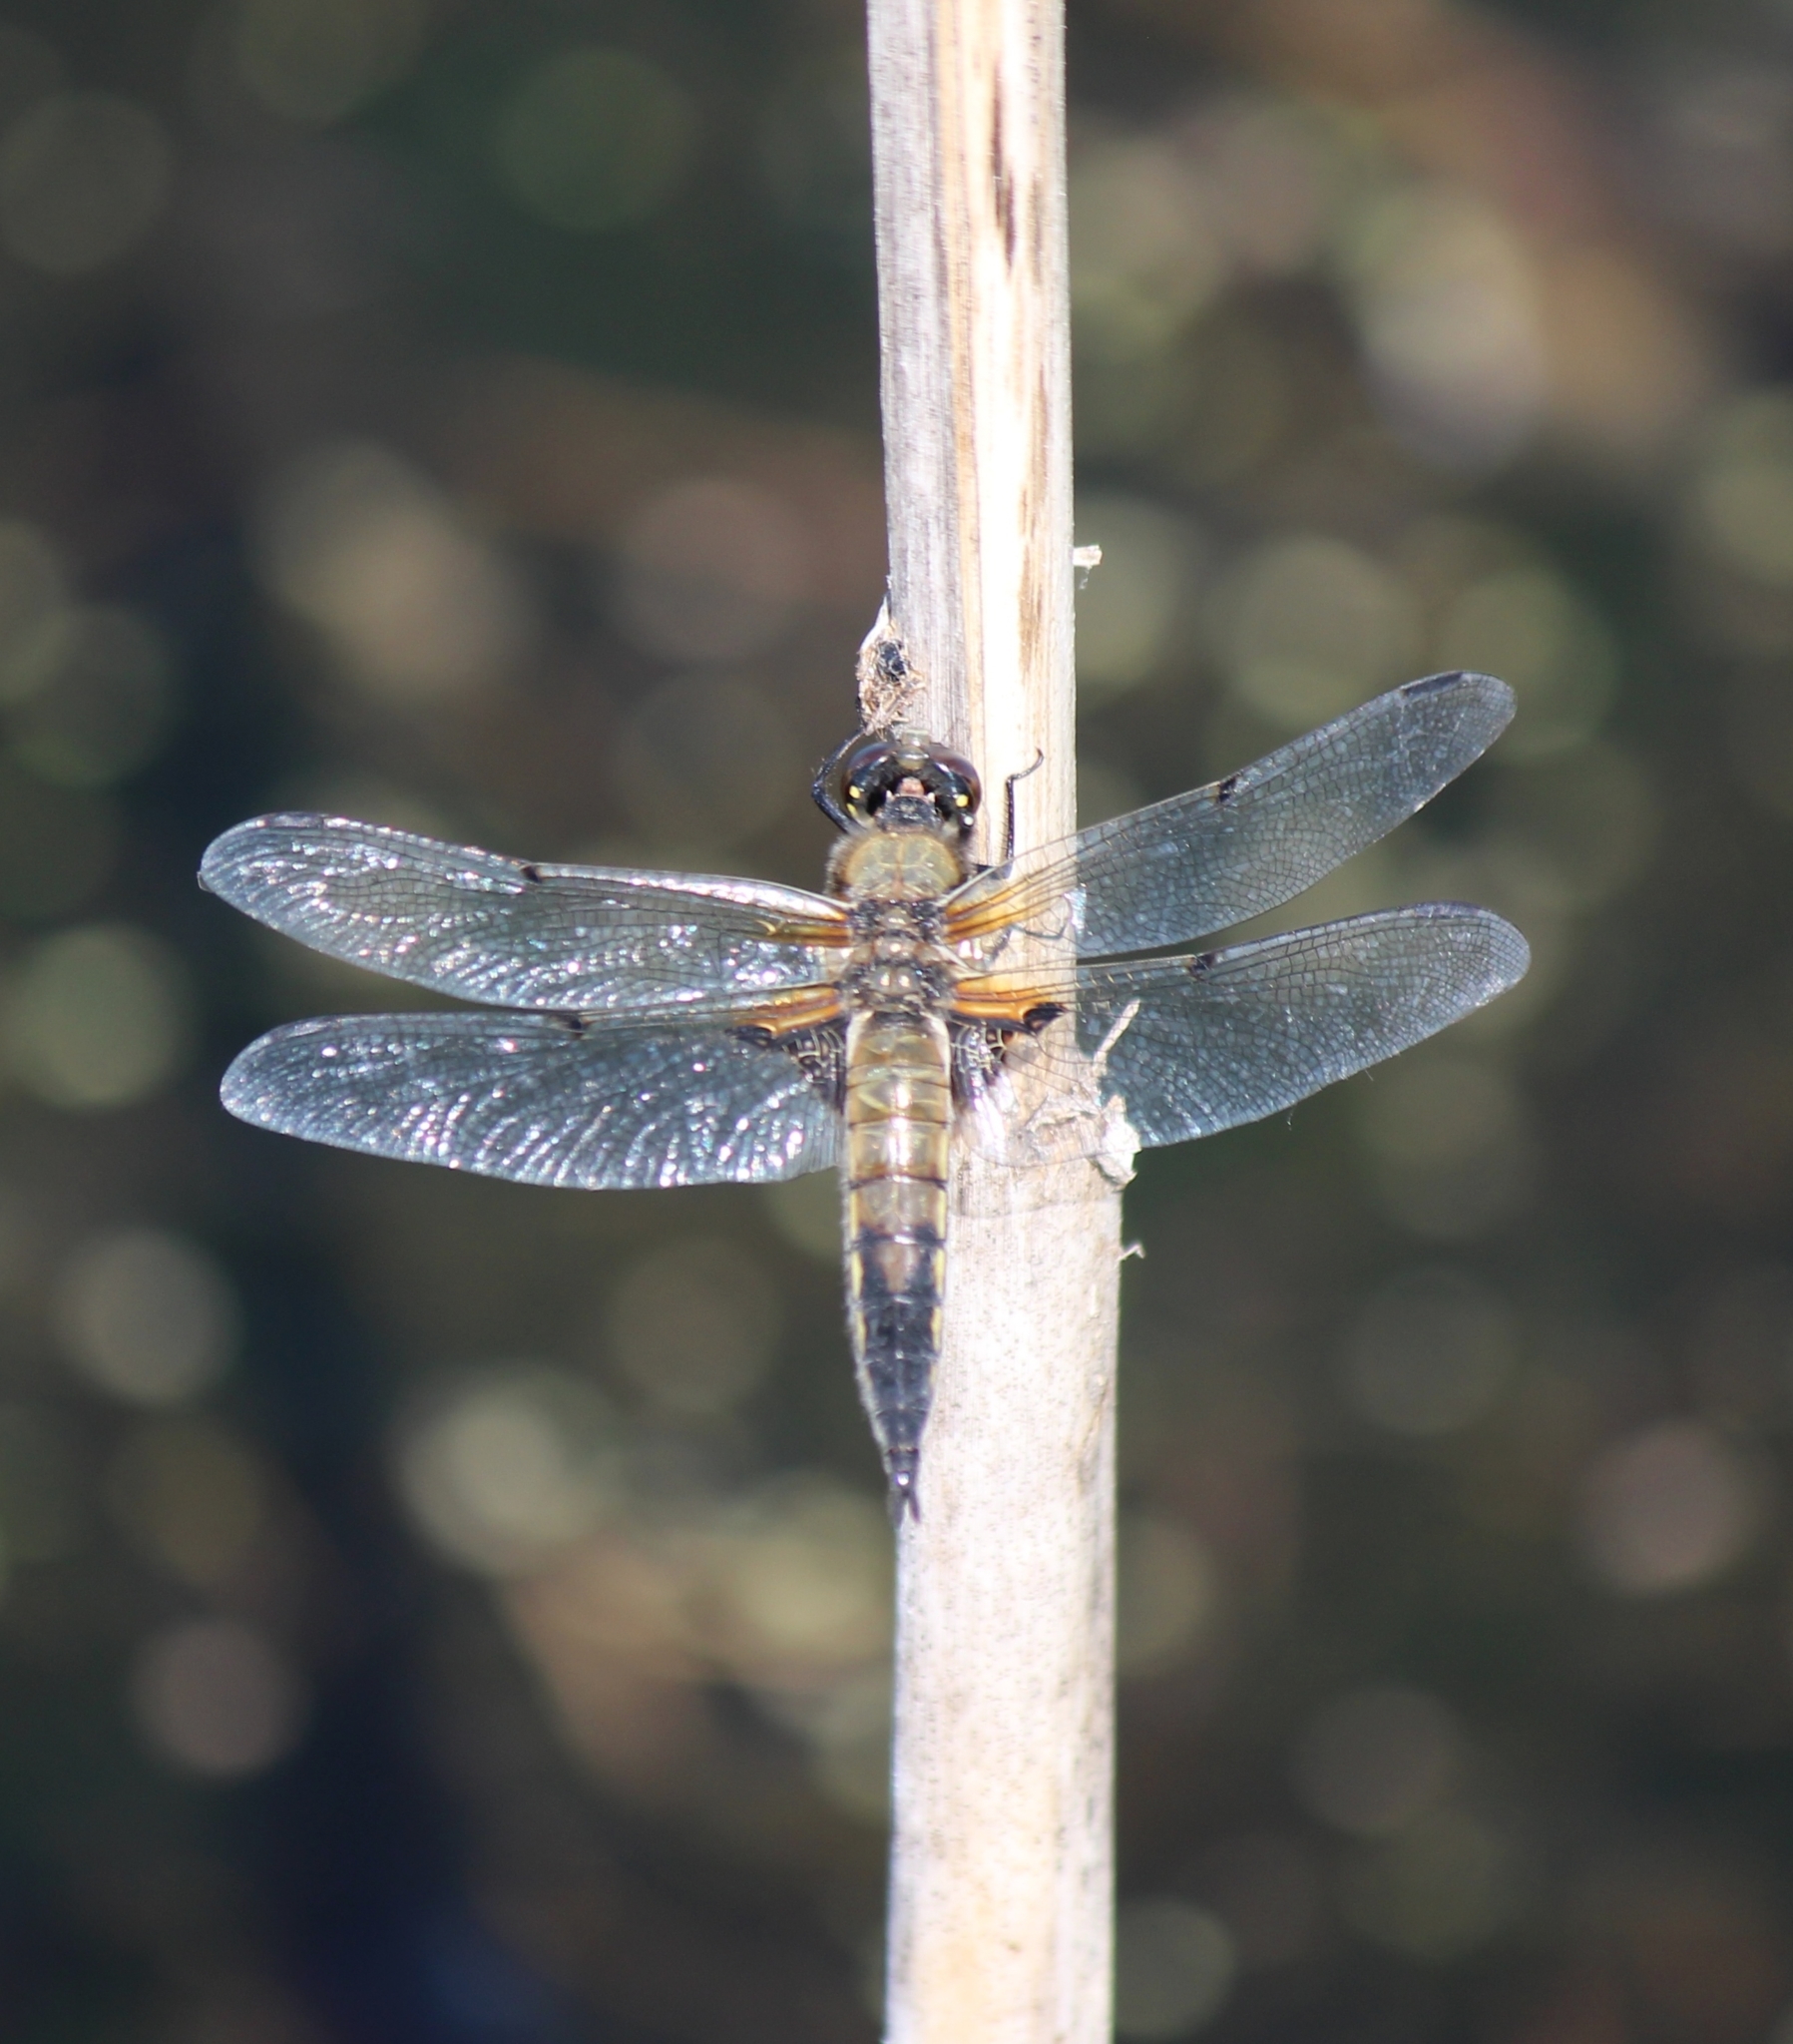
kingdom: Animalia
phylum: Arthropoda
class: Insecta
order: Odonata
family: Libellulidae
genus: Libellula
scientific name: Libellula quadrimaculata
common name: Four-spotted chaser
